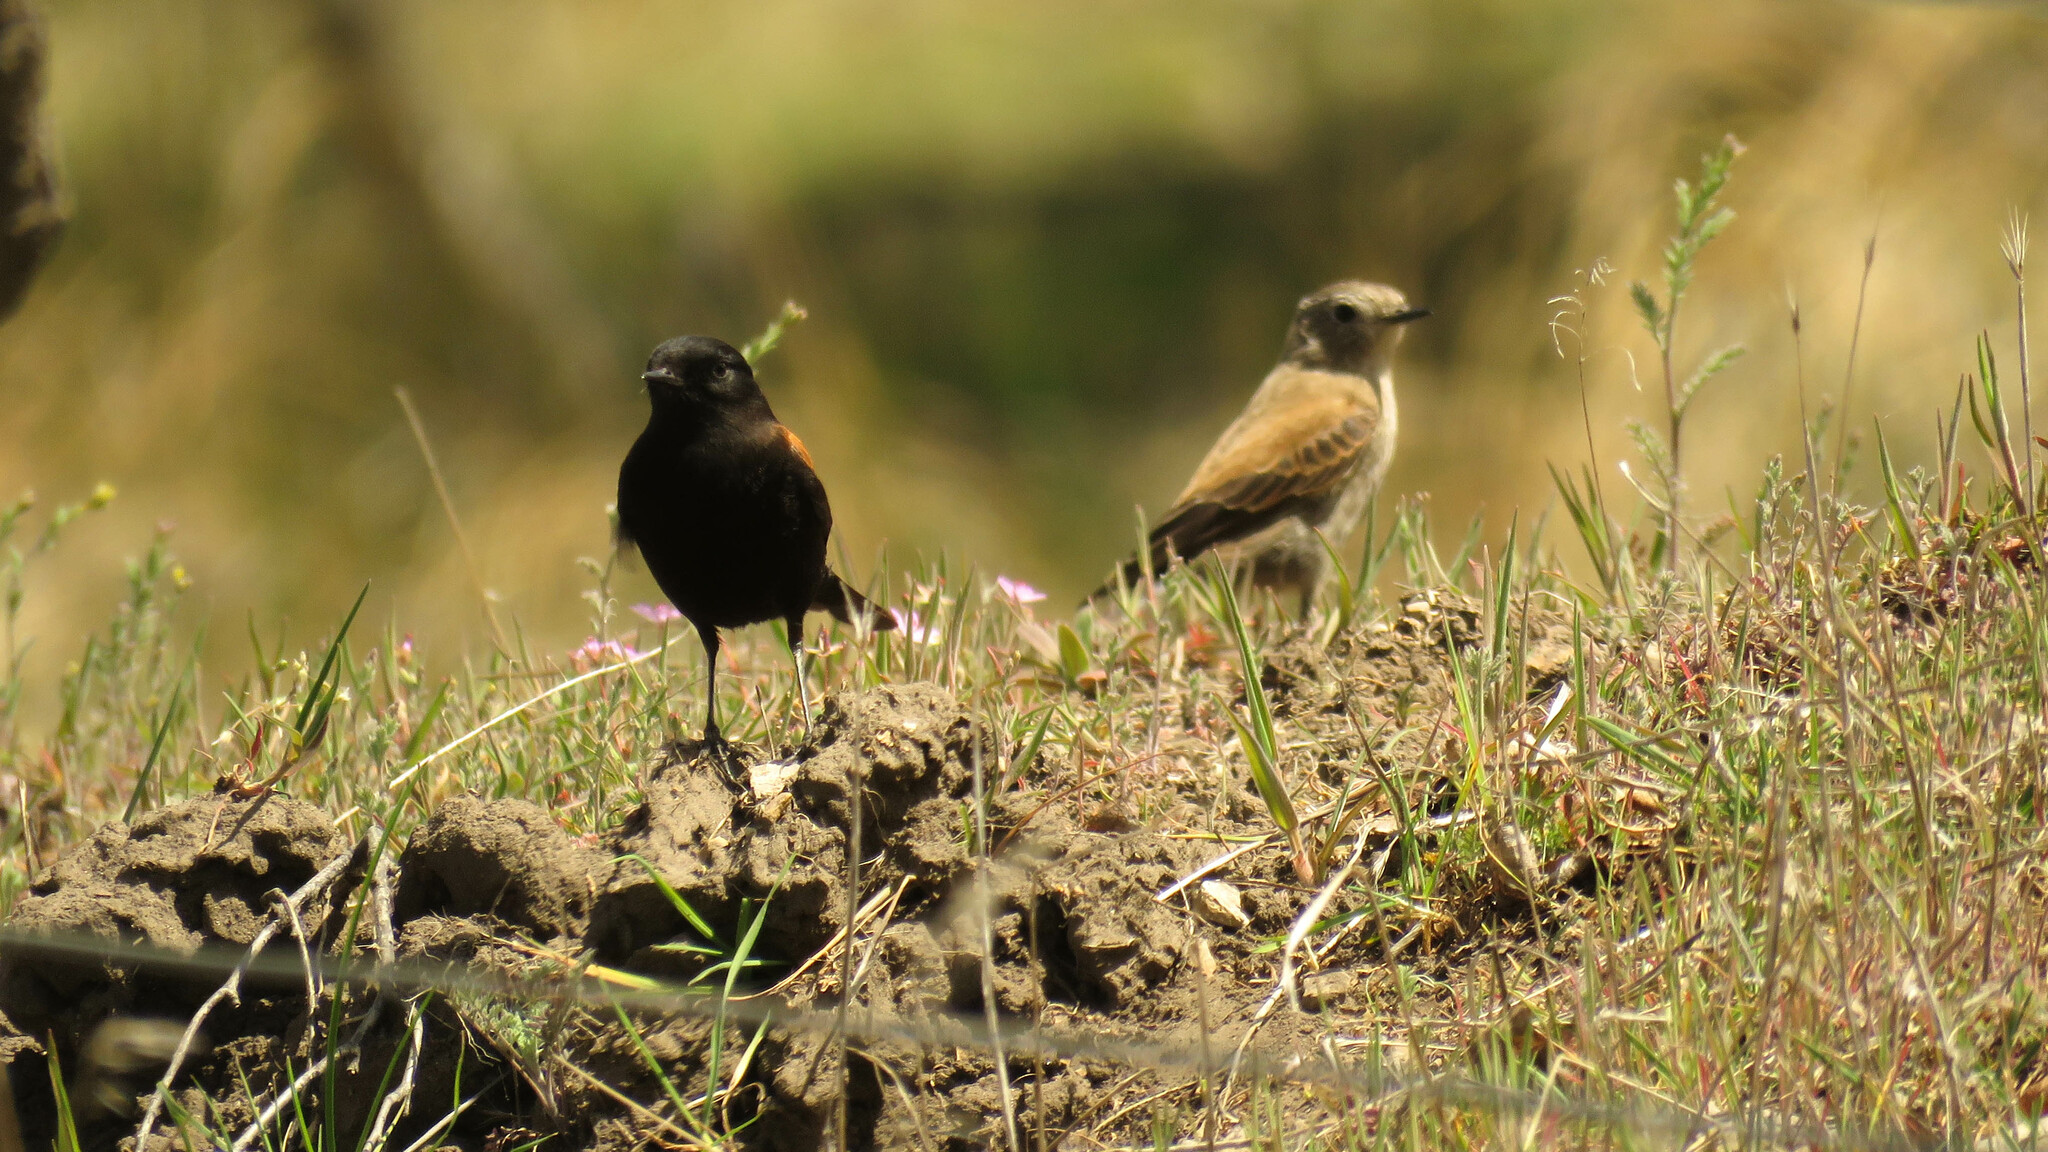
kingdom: Animalia
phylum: Chordata
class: Aves
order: Passeriformes
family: Tyrannidae
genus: Lessonia
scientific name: Lessonia rufa
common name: Austral negrito
